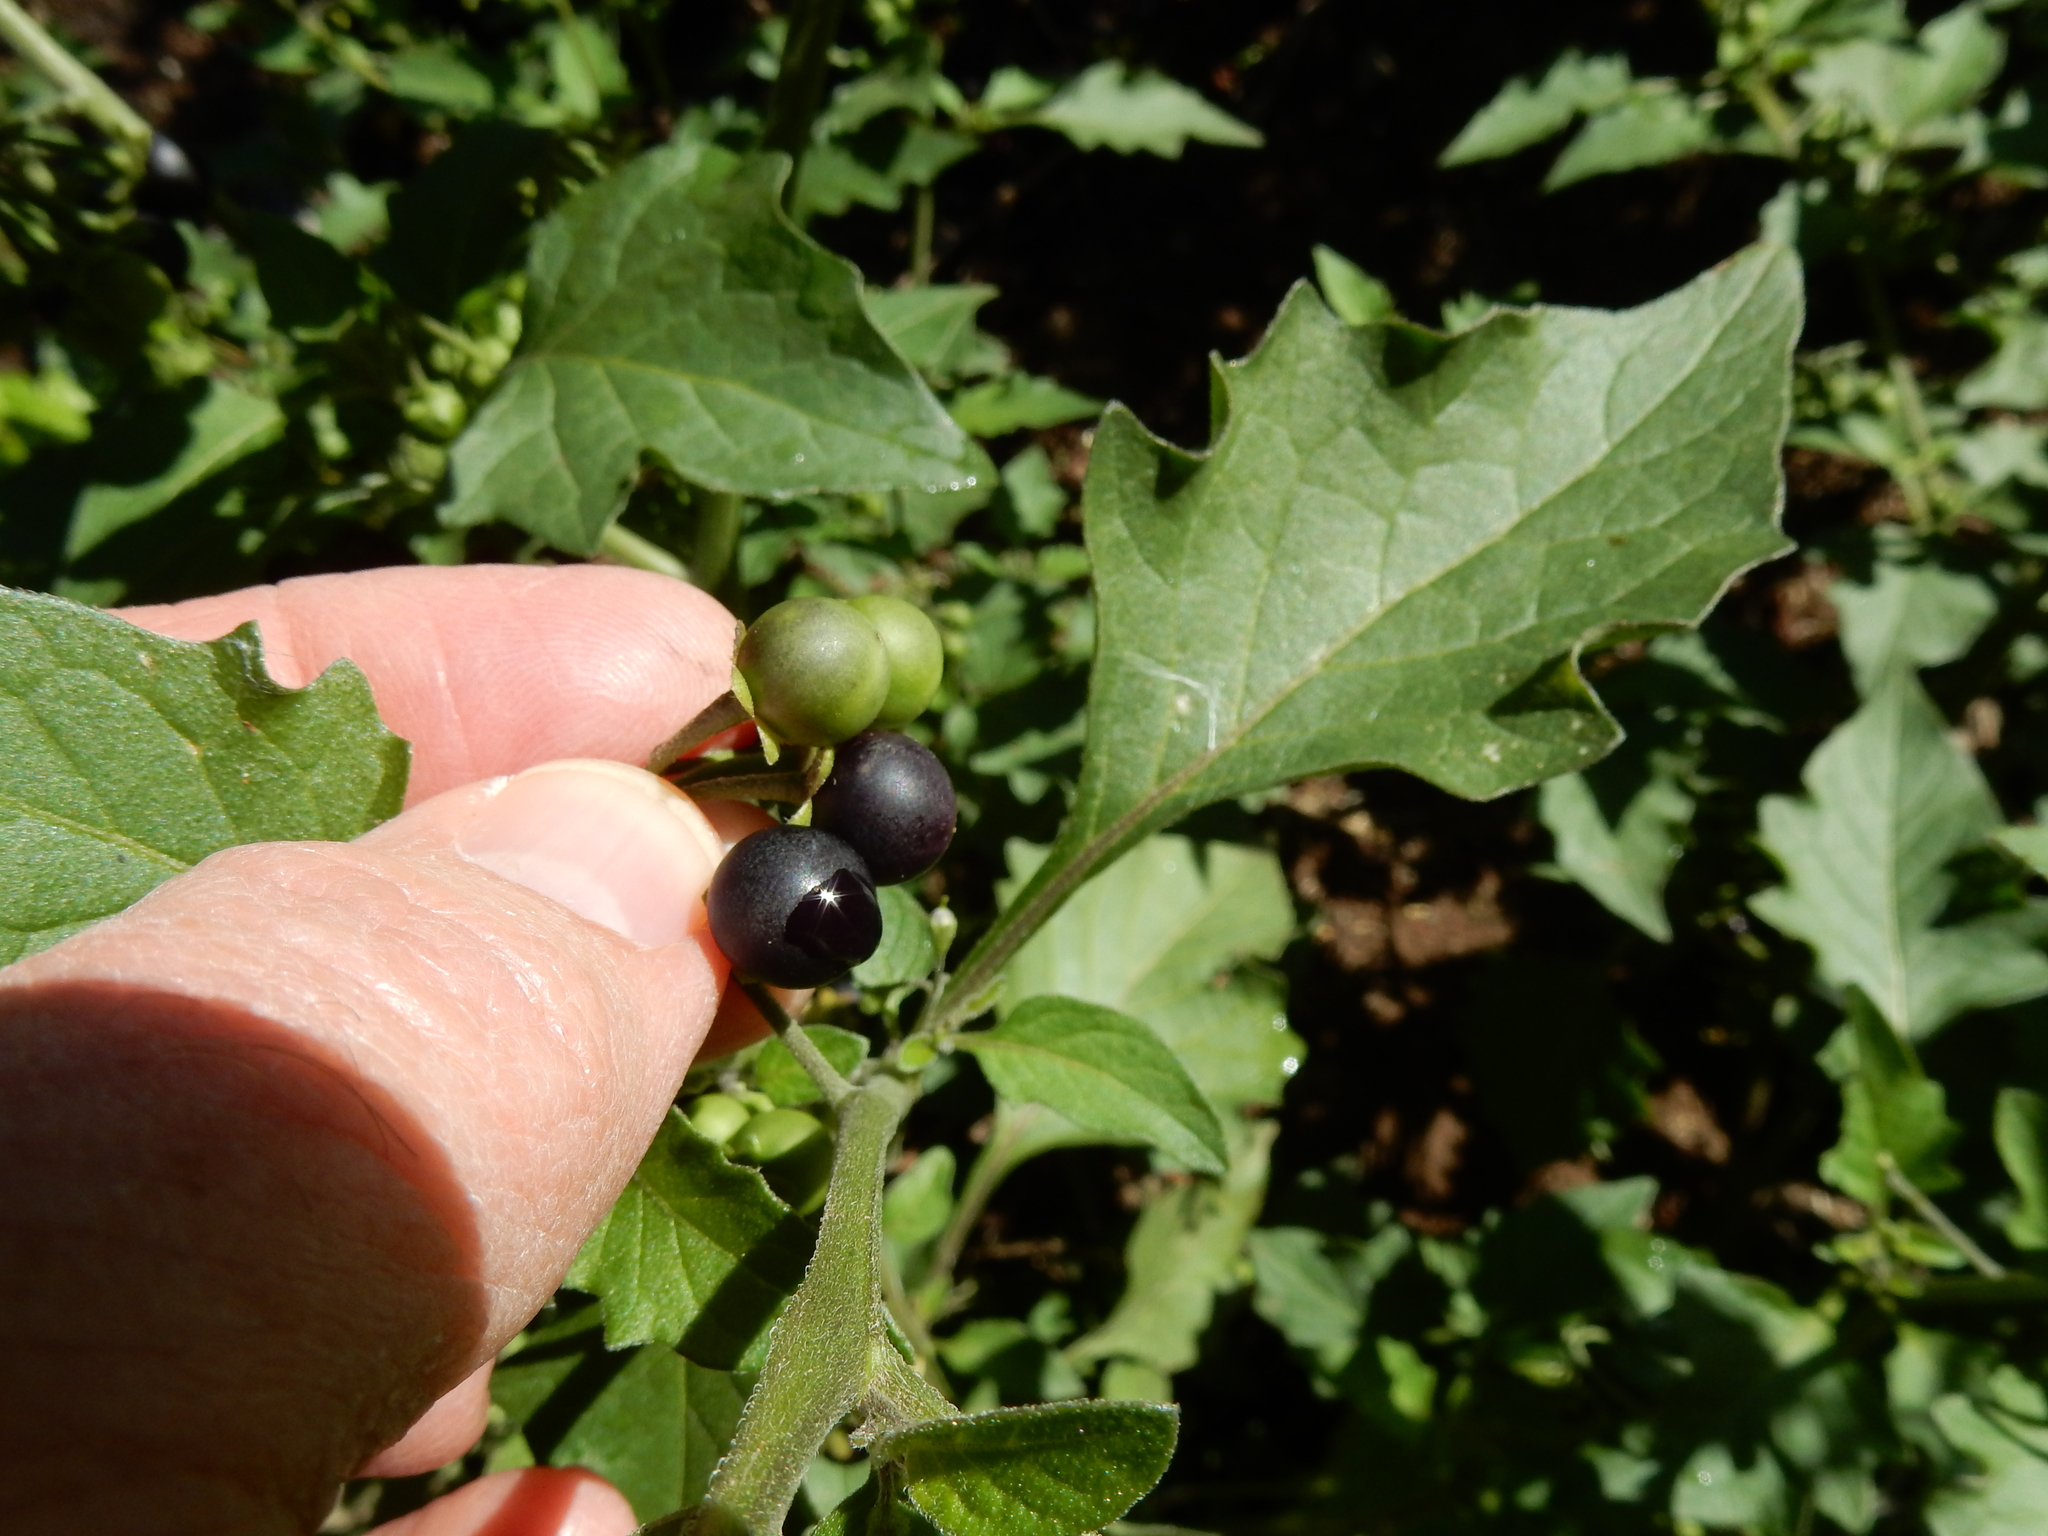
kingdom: Plantae
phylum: Tracheophyta
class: Magnoliopsida
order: Solanales
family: Solanaceae
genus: Solanum
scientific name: Solanum nigrum
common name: Black nightshade
